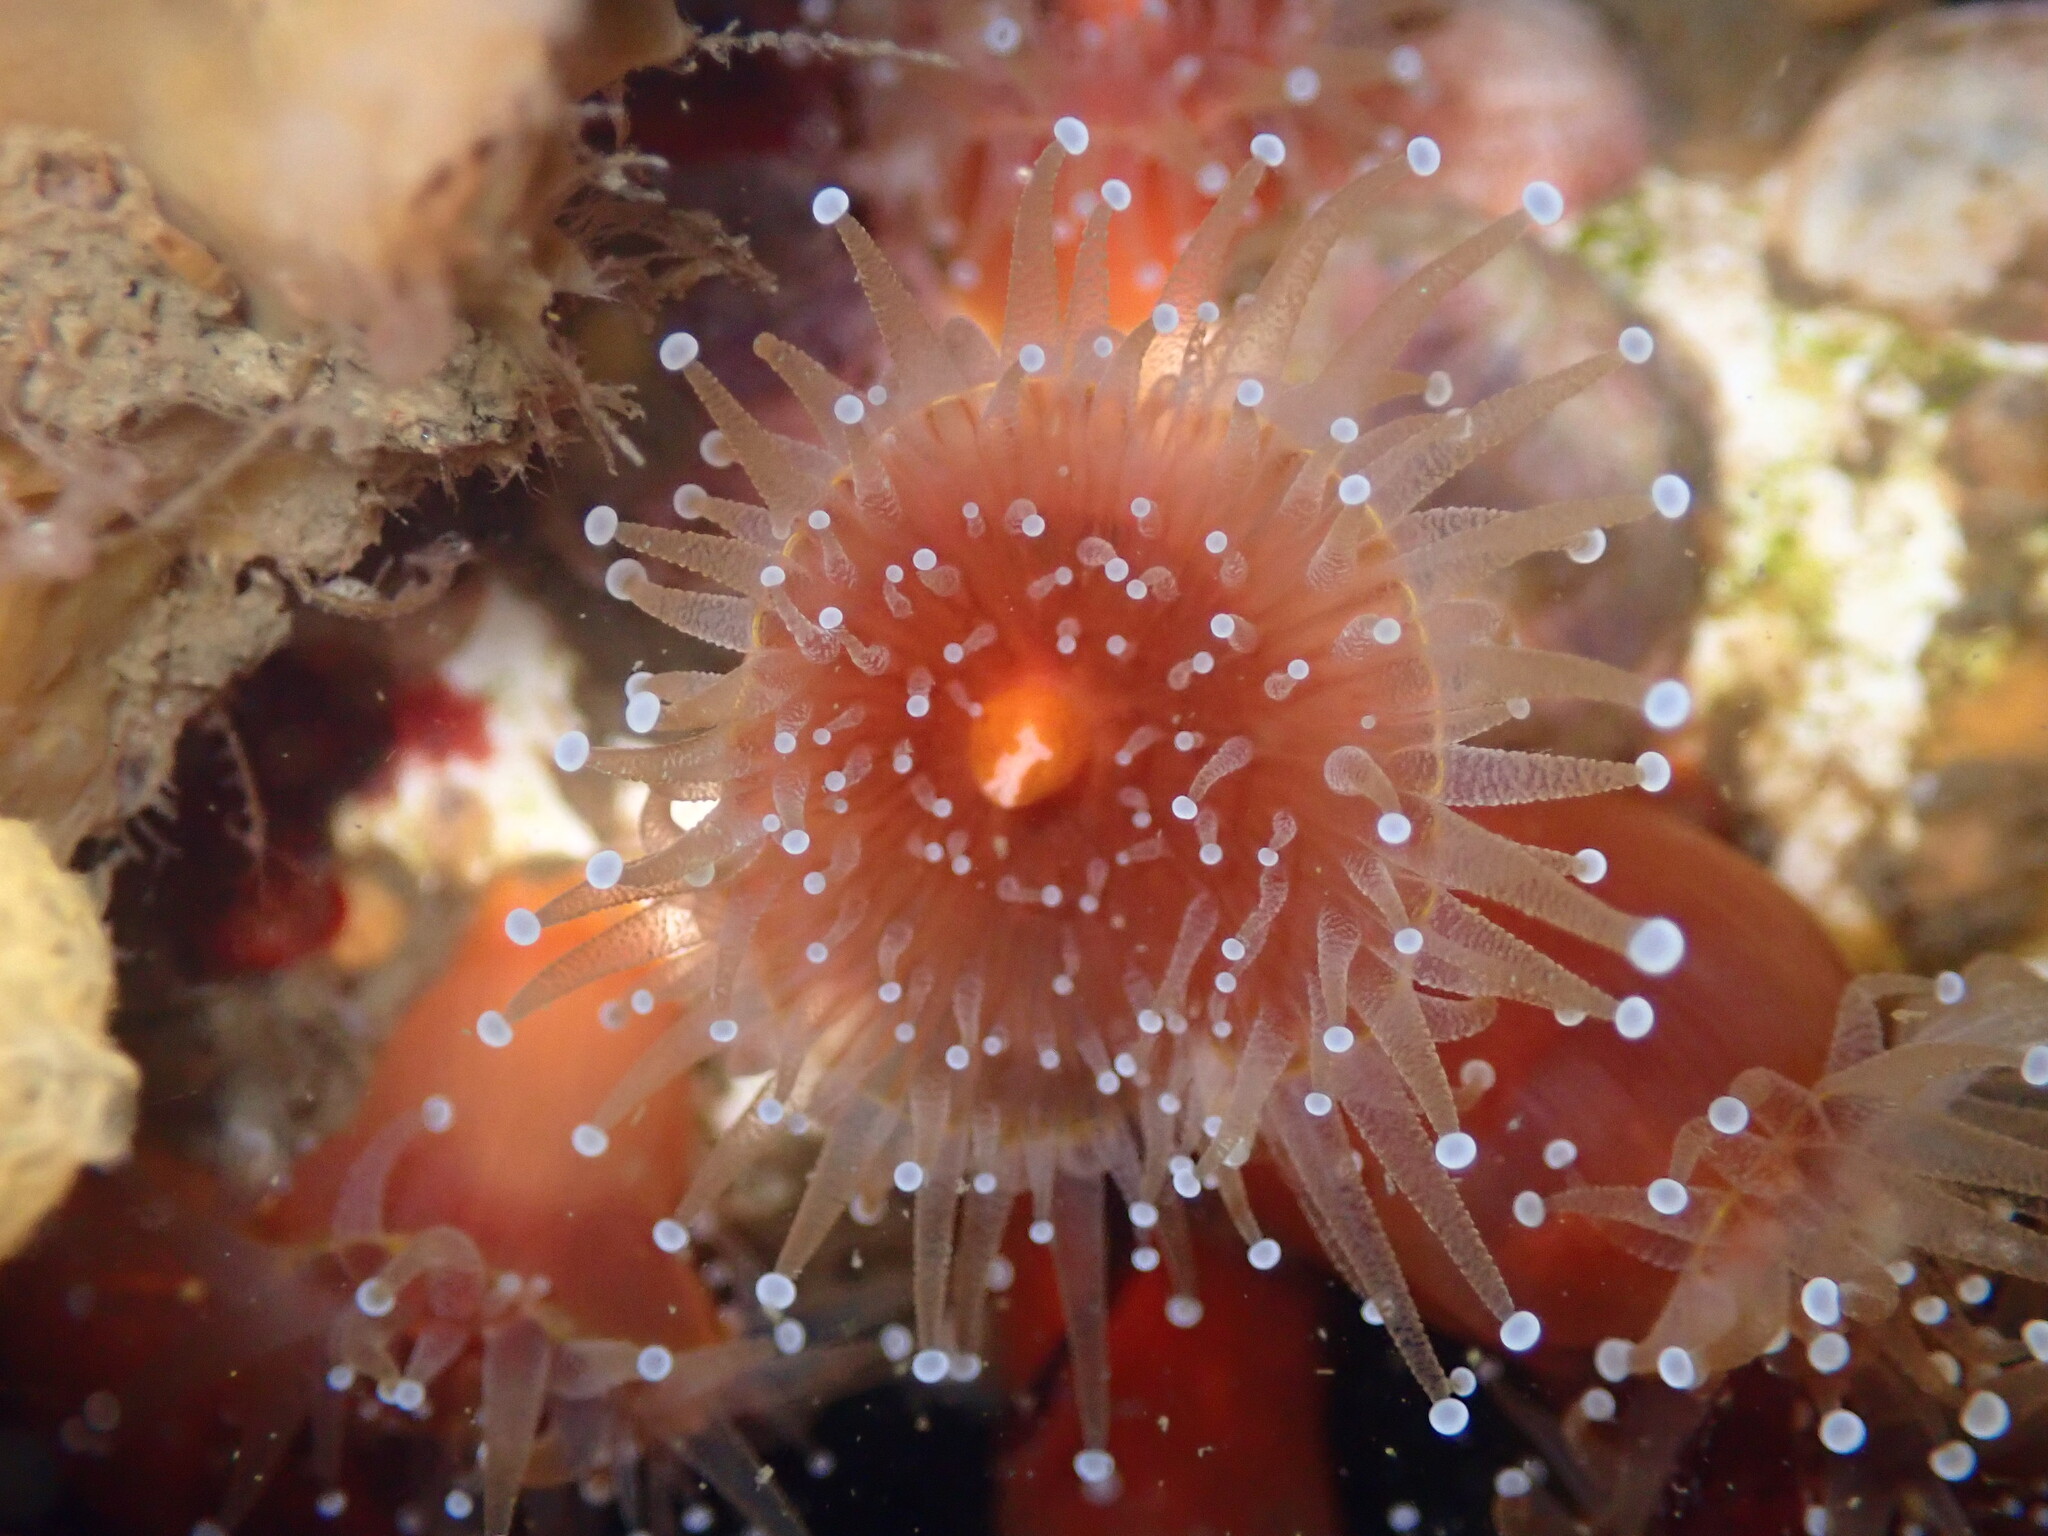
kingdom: Animalia
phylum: Cnidaria
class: Anthozoa
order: Corallimorpharia
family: Corallimorphidae
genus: Corynactis
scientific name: Corynactis californica
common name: Strawberry corallimorpharian
